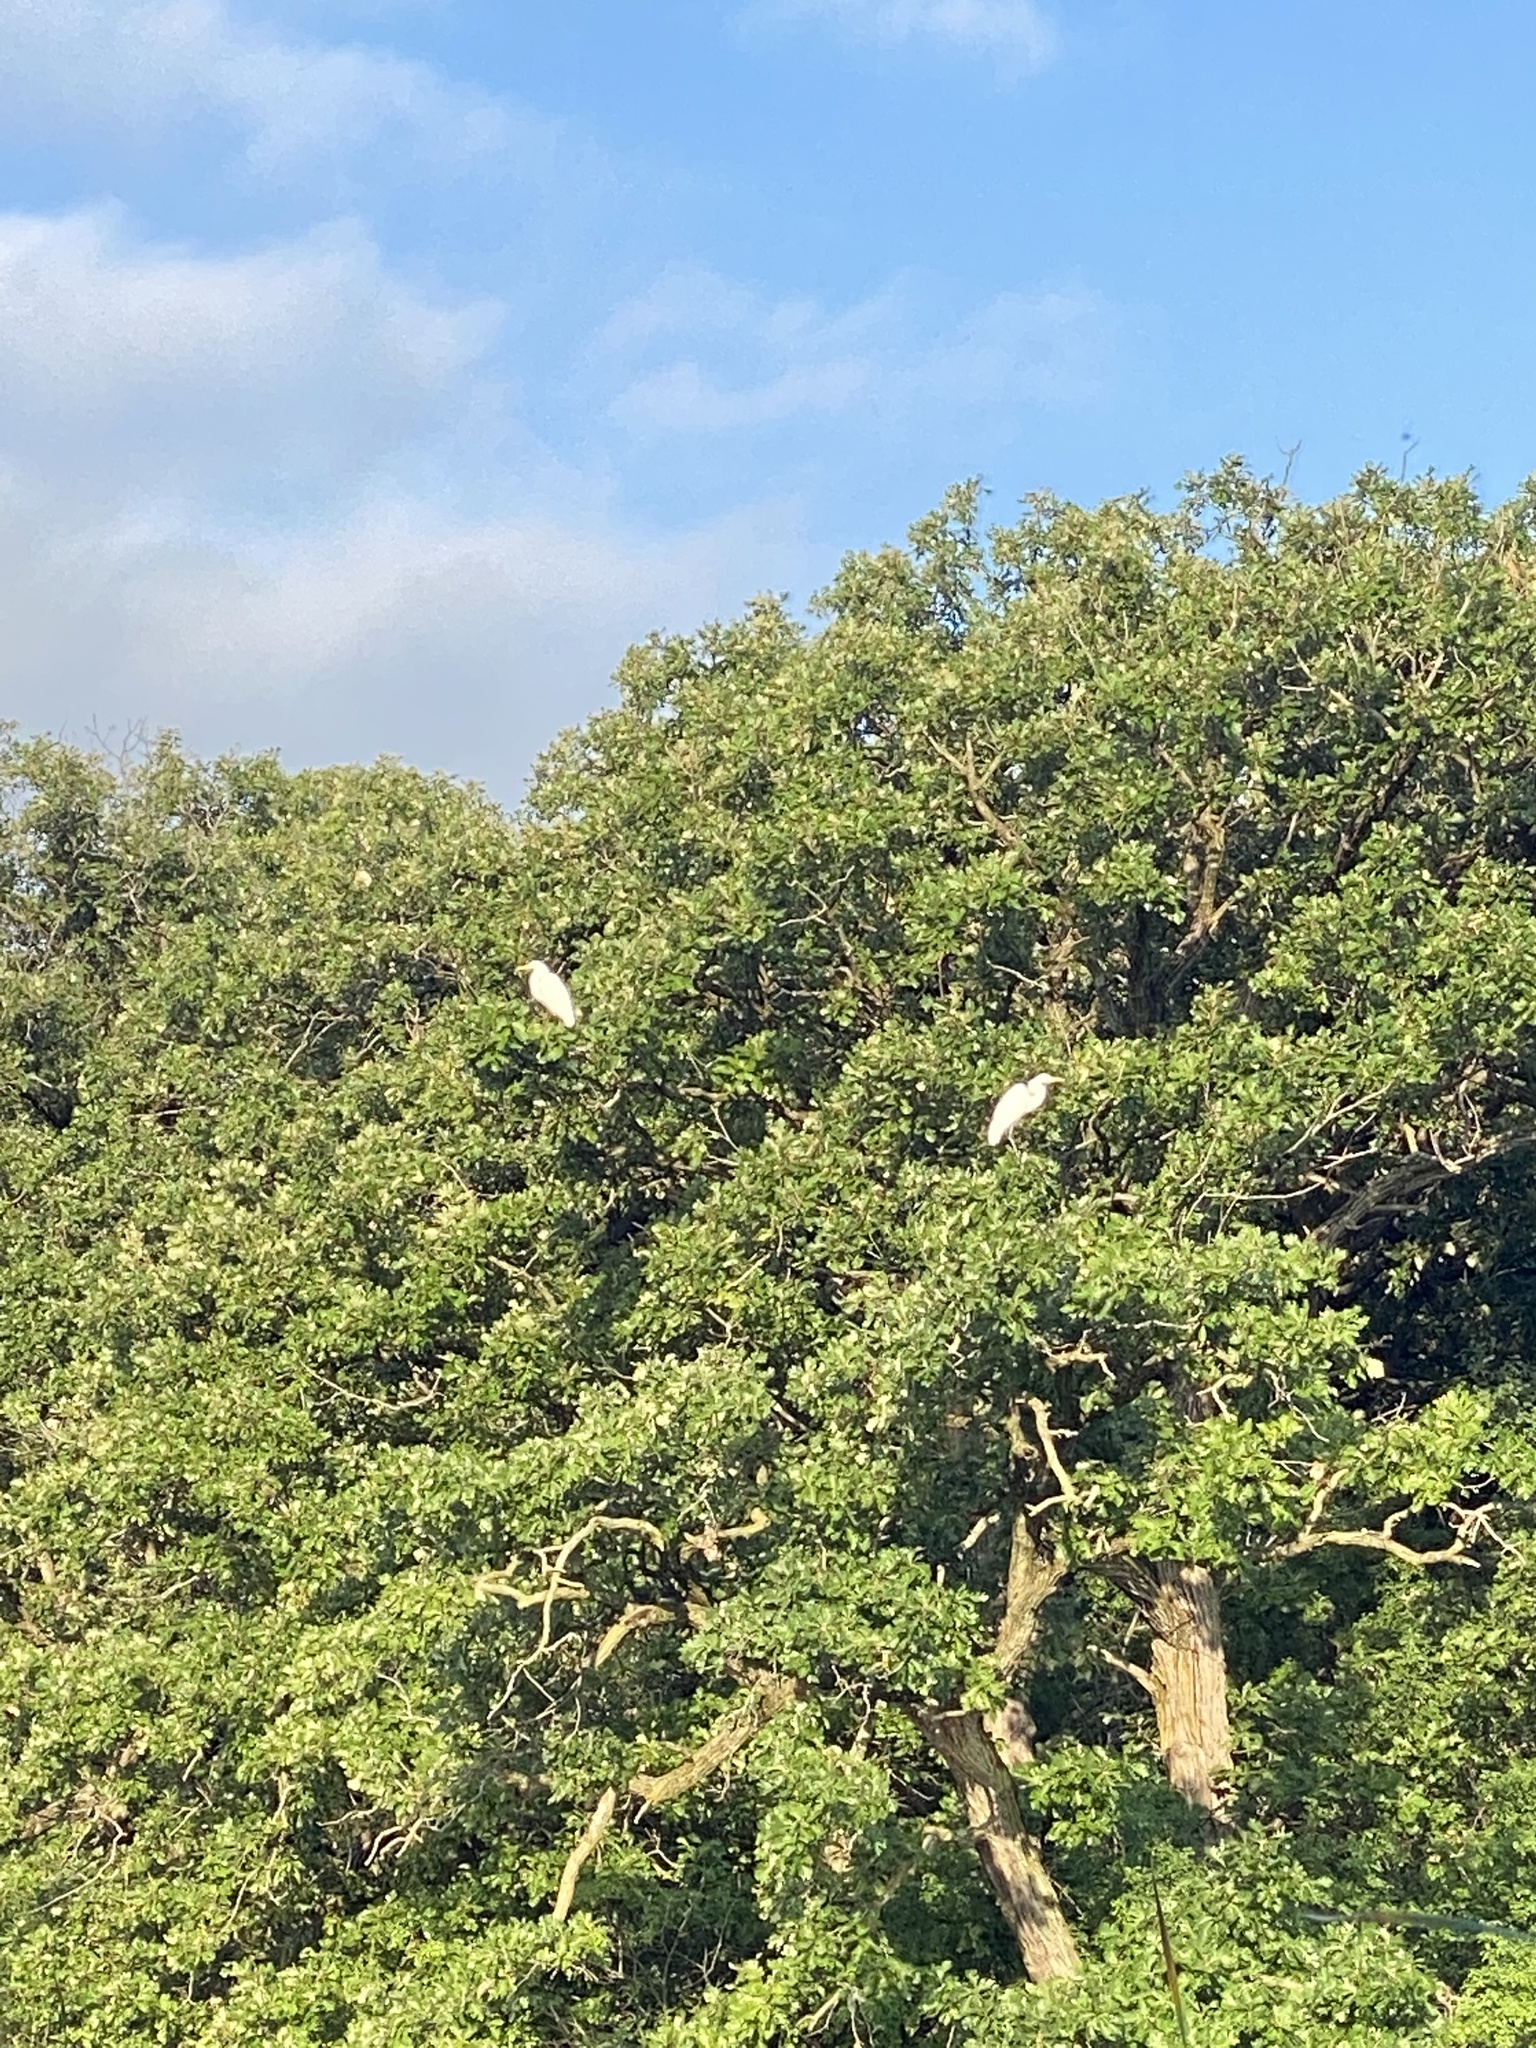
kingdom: Animalia
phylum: Chordata
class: Aves
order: Pelecaniformes
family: Ardeidae
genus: Ardea
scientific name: Ardea alba
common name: Great egret
